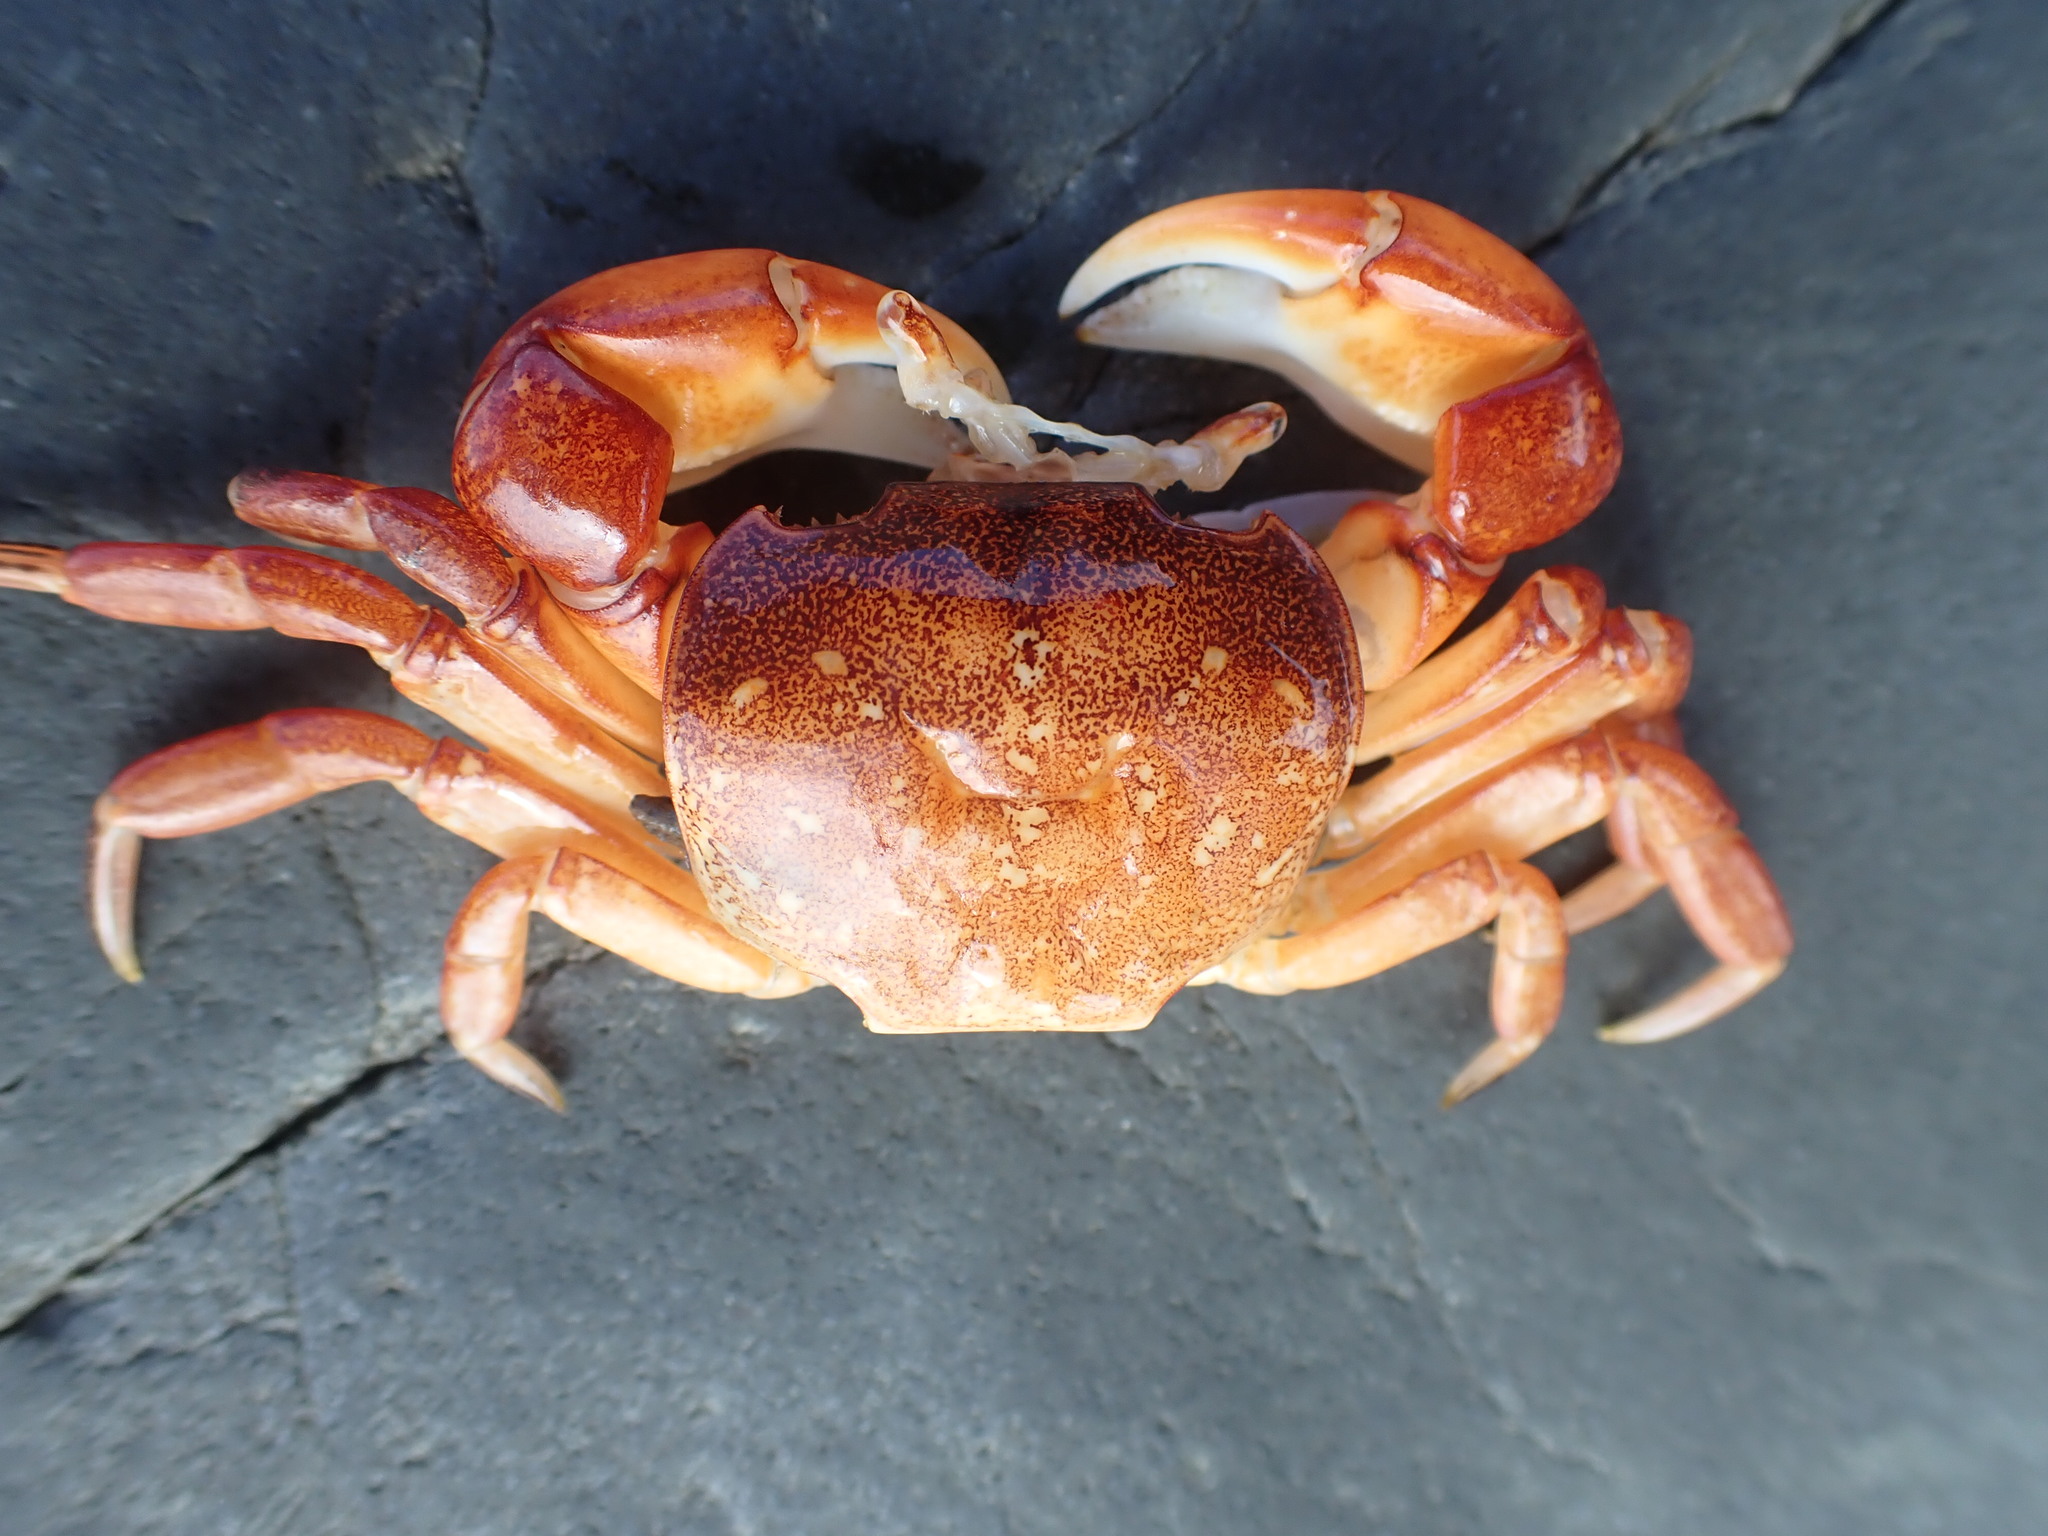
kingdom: Animalia
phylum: Arthropoda
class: Malacostraca
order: Decapoda
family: Varunidae
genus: Cyclograpsus
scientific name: Cyclograpsus lavauxi
